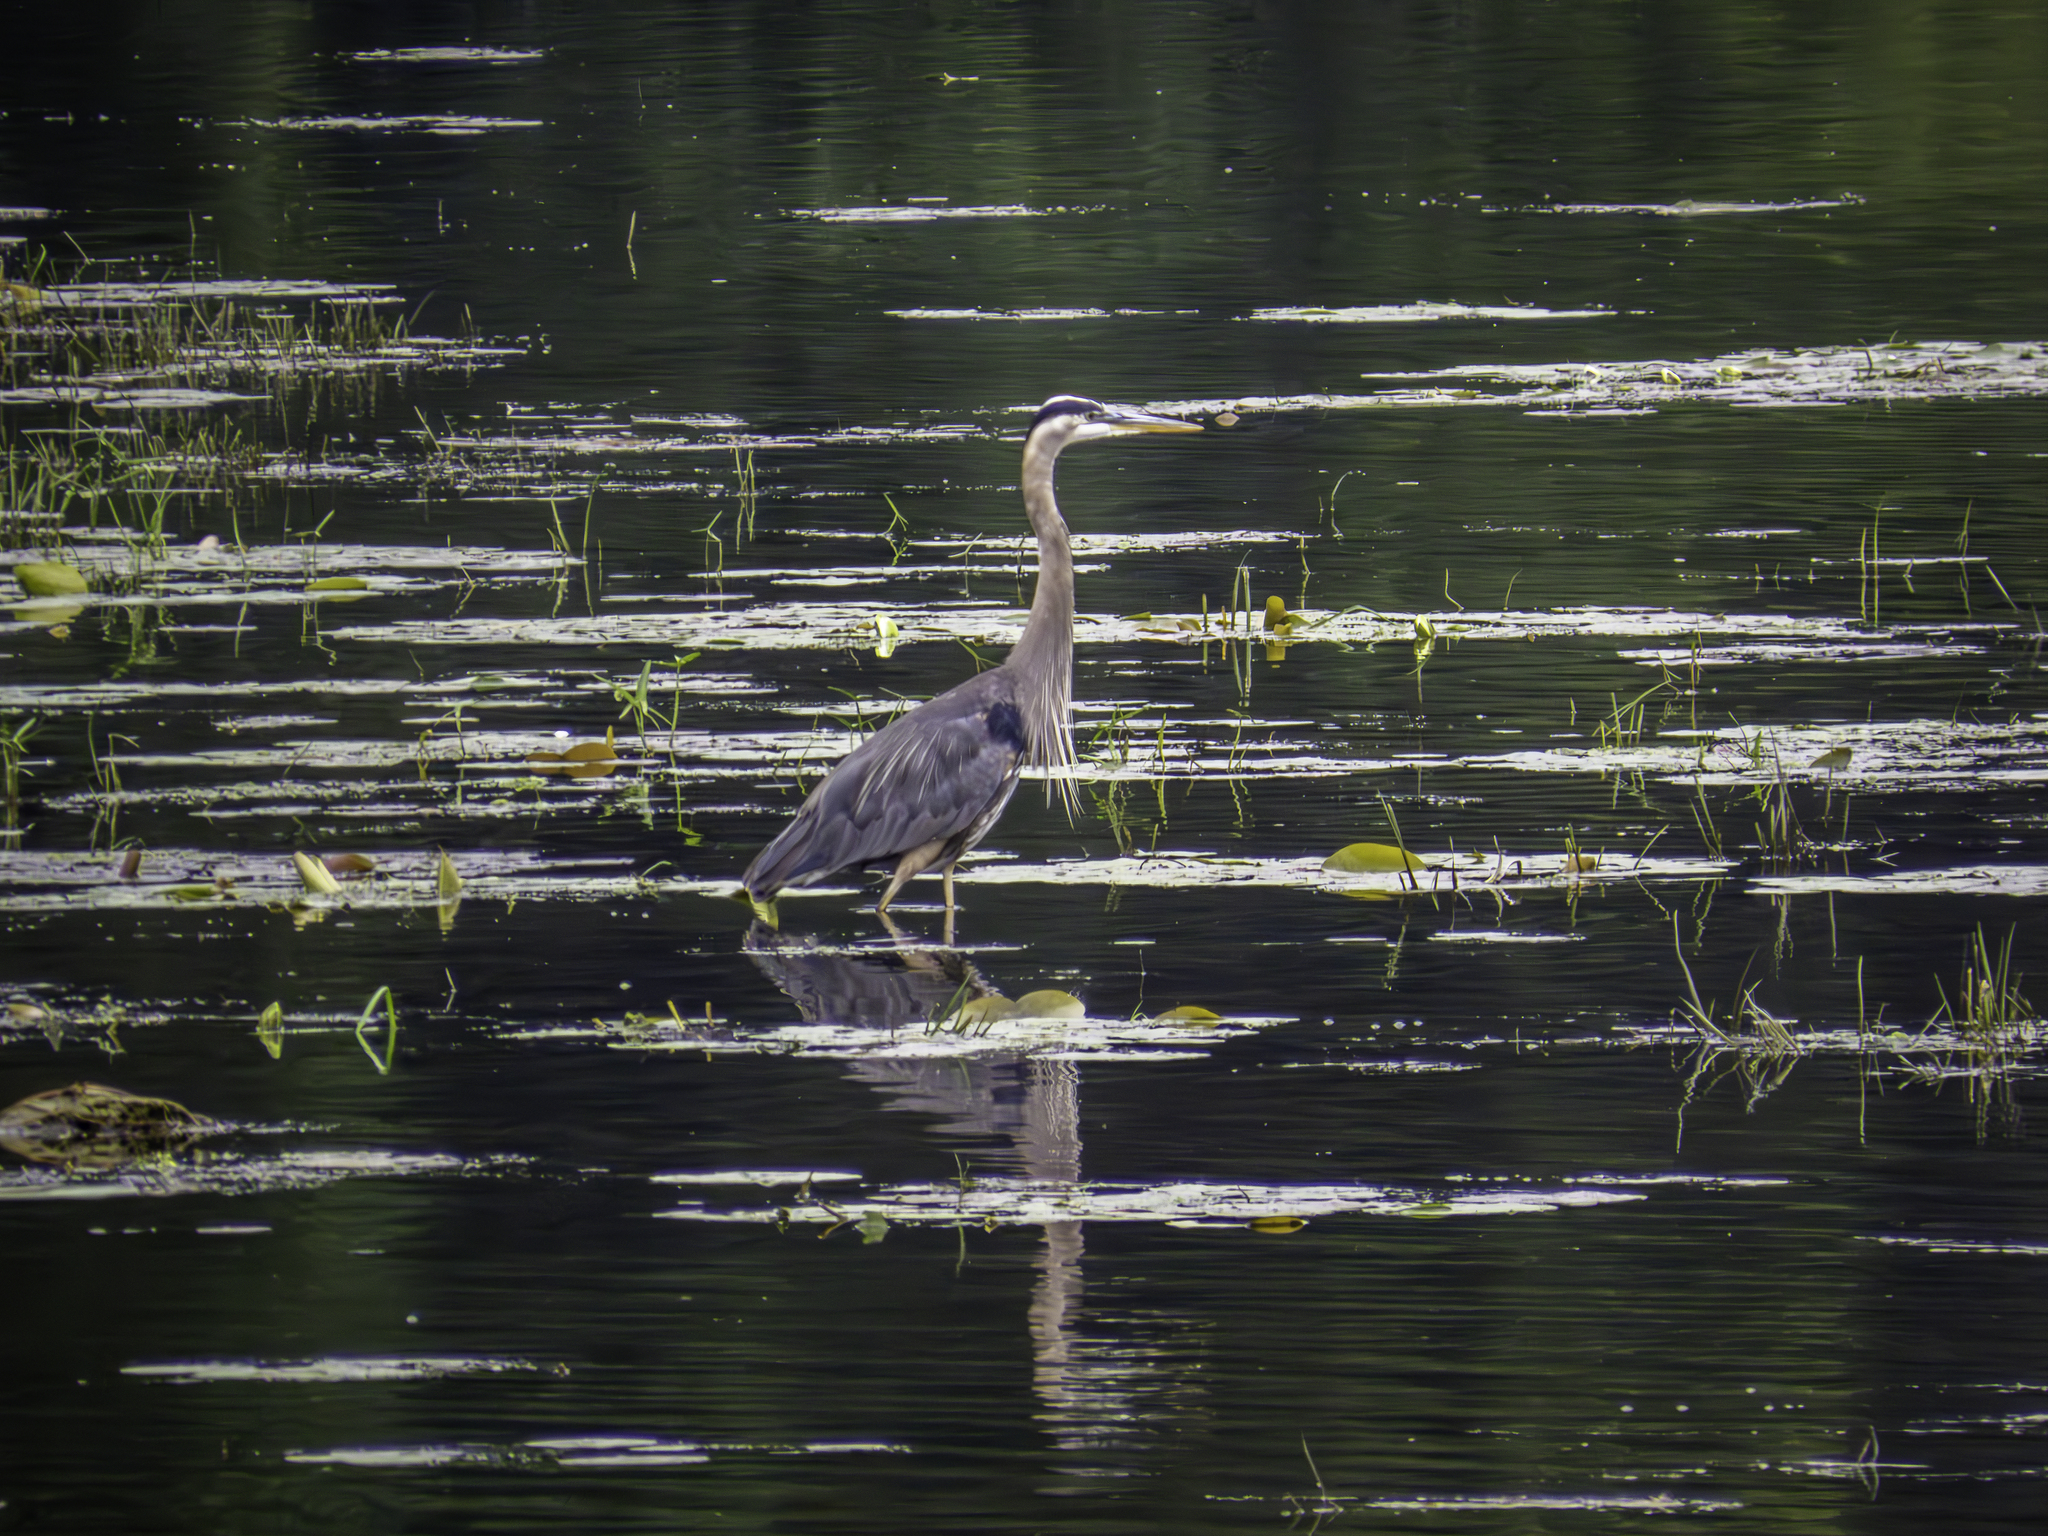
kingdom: Animalia
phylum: Chordata
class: Aves
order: Pelecaniformes
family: Ardeidae
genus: Ardea
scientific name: Ardea herodias
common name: Great blue heron
